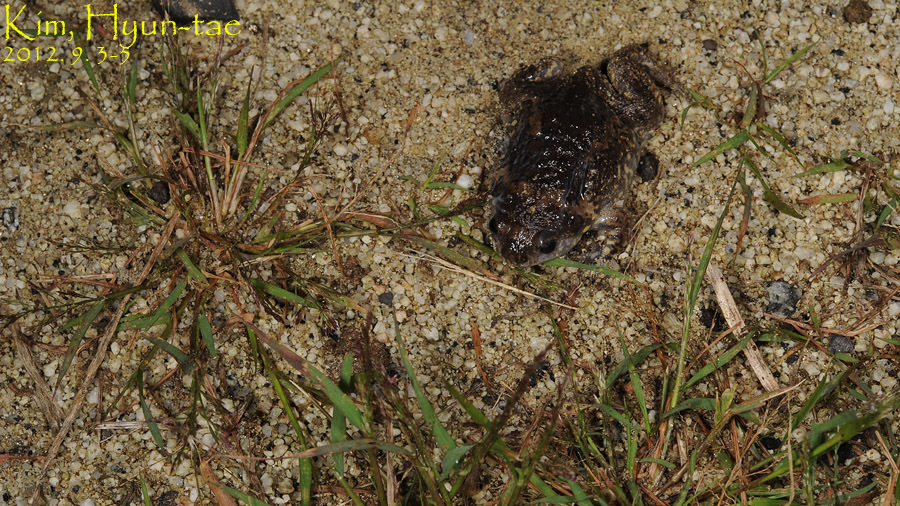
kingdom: Animalia
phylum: Chordata
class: Amphibia
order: Anura
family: Microhylidae
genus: Kaloula
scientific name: Kaloula borealis
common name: Boreal digging frog
